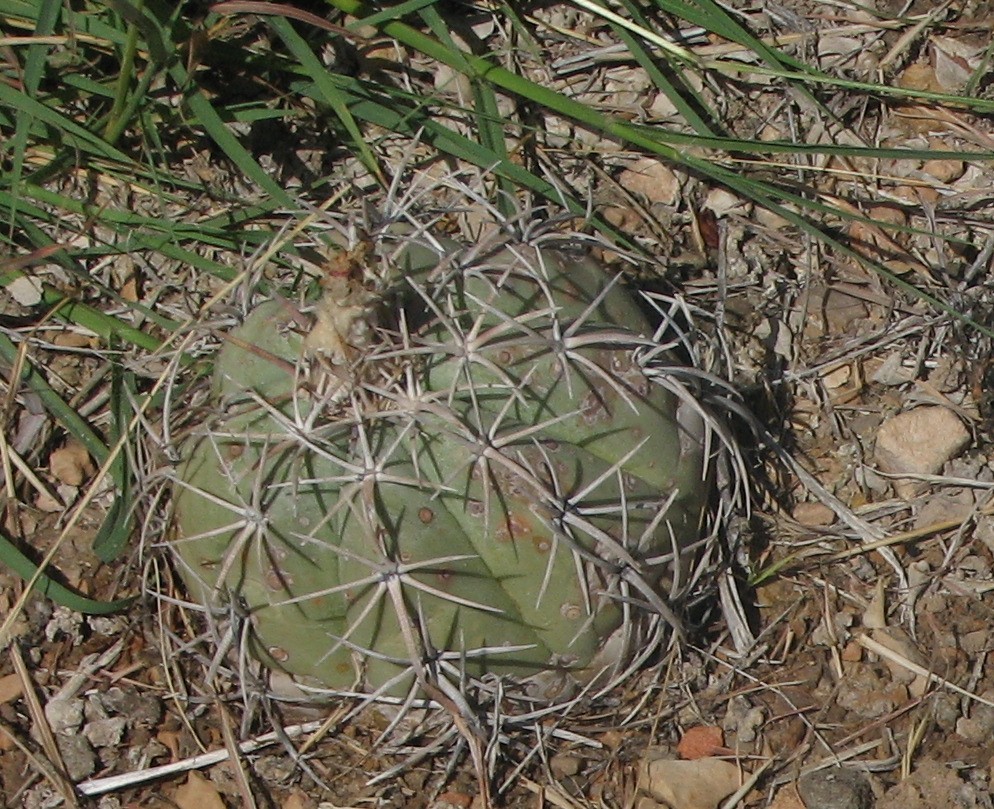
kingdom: Plantae
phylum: Tracheophyta
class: Magnoliopsida
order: Caryophyllales
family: Cactaceae
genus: Echinocactus
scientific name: Echinocactus horizonthalonius
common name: Devilshead
